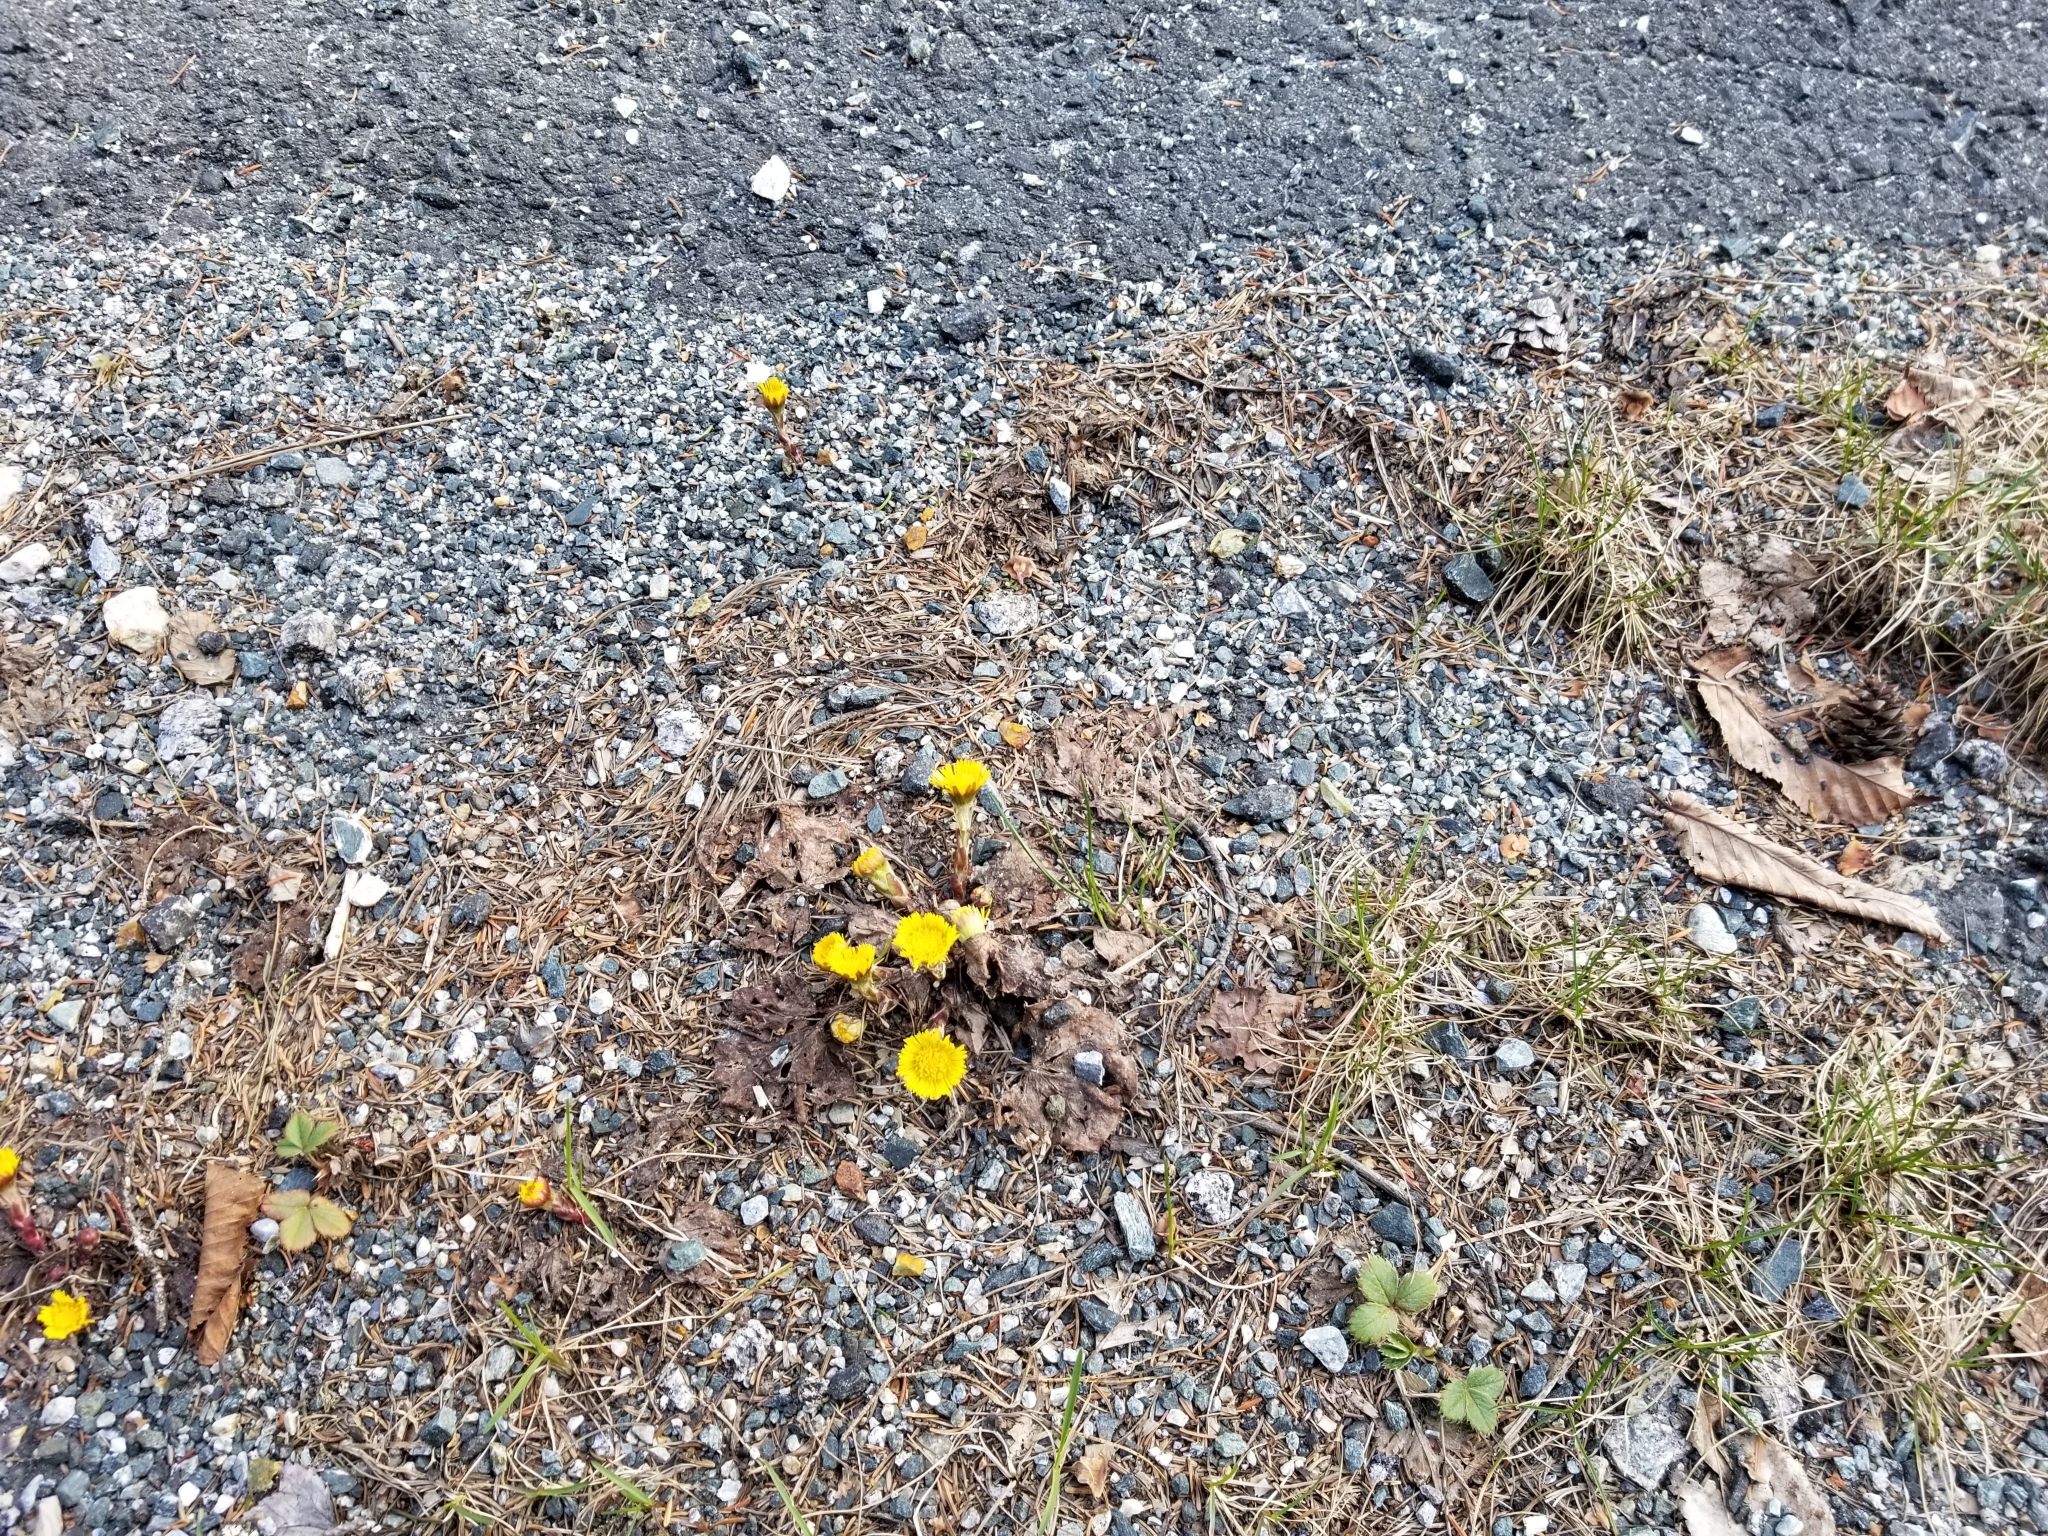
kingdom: Plantae
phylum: Tracheophyta
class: Magnoliopsida
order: Asterales
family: Asteraceae
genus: Tussilago
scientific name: Tussilago farfara
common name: Coltsfoot
